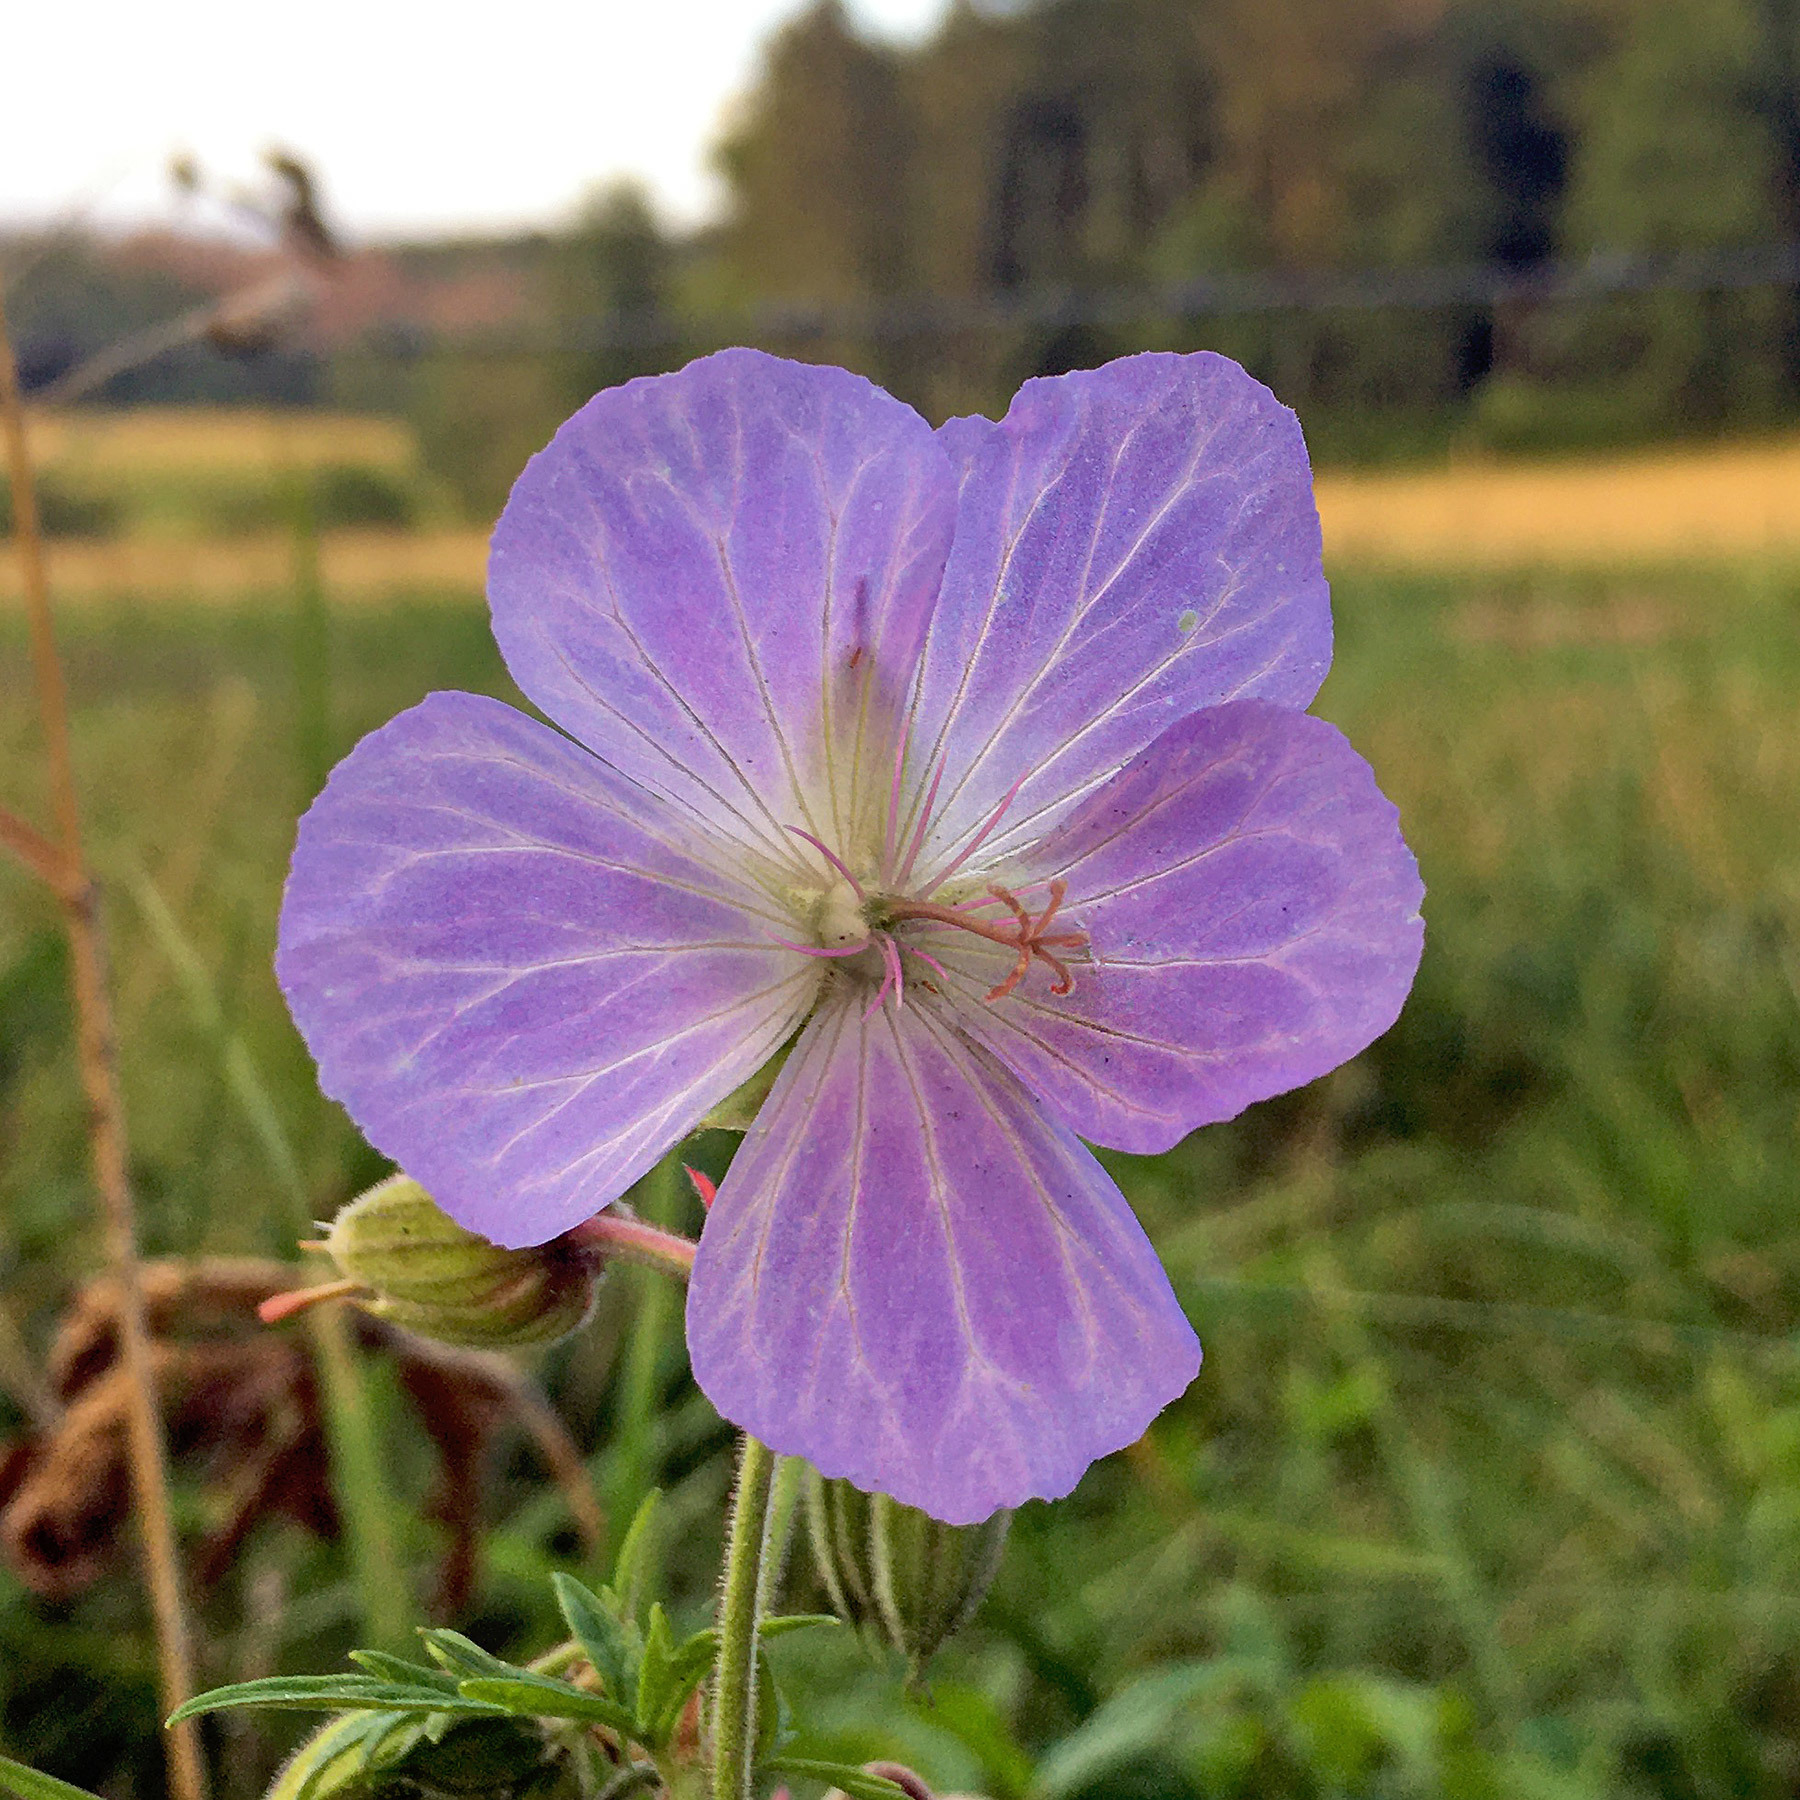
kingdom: Plantae
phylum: Tracheophyta
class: Magnoliopsida
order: Geraniales
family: Geraniaceae
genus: Geranium
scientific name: Geranium pratense
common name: Meadow crane's-bill
